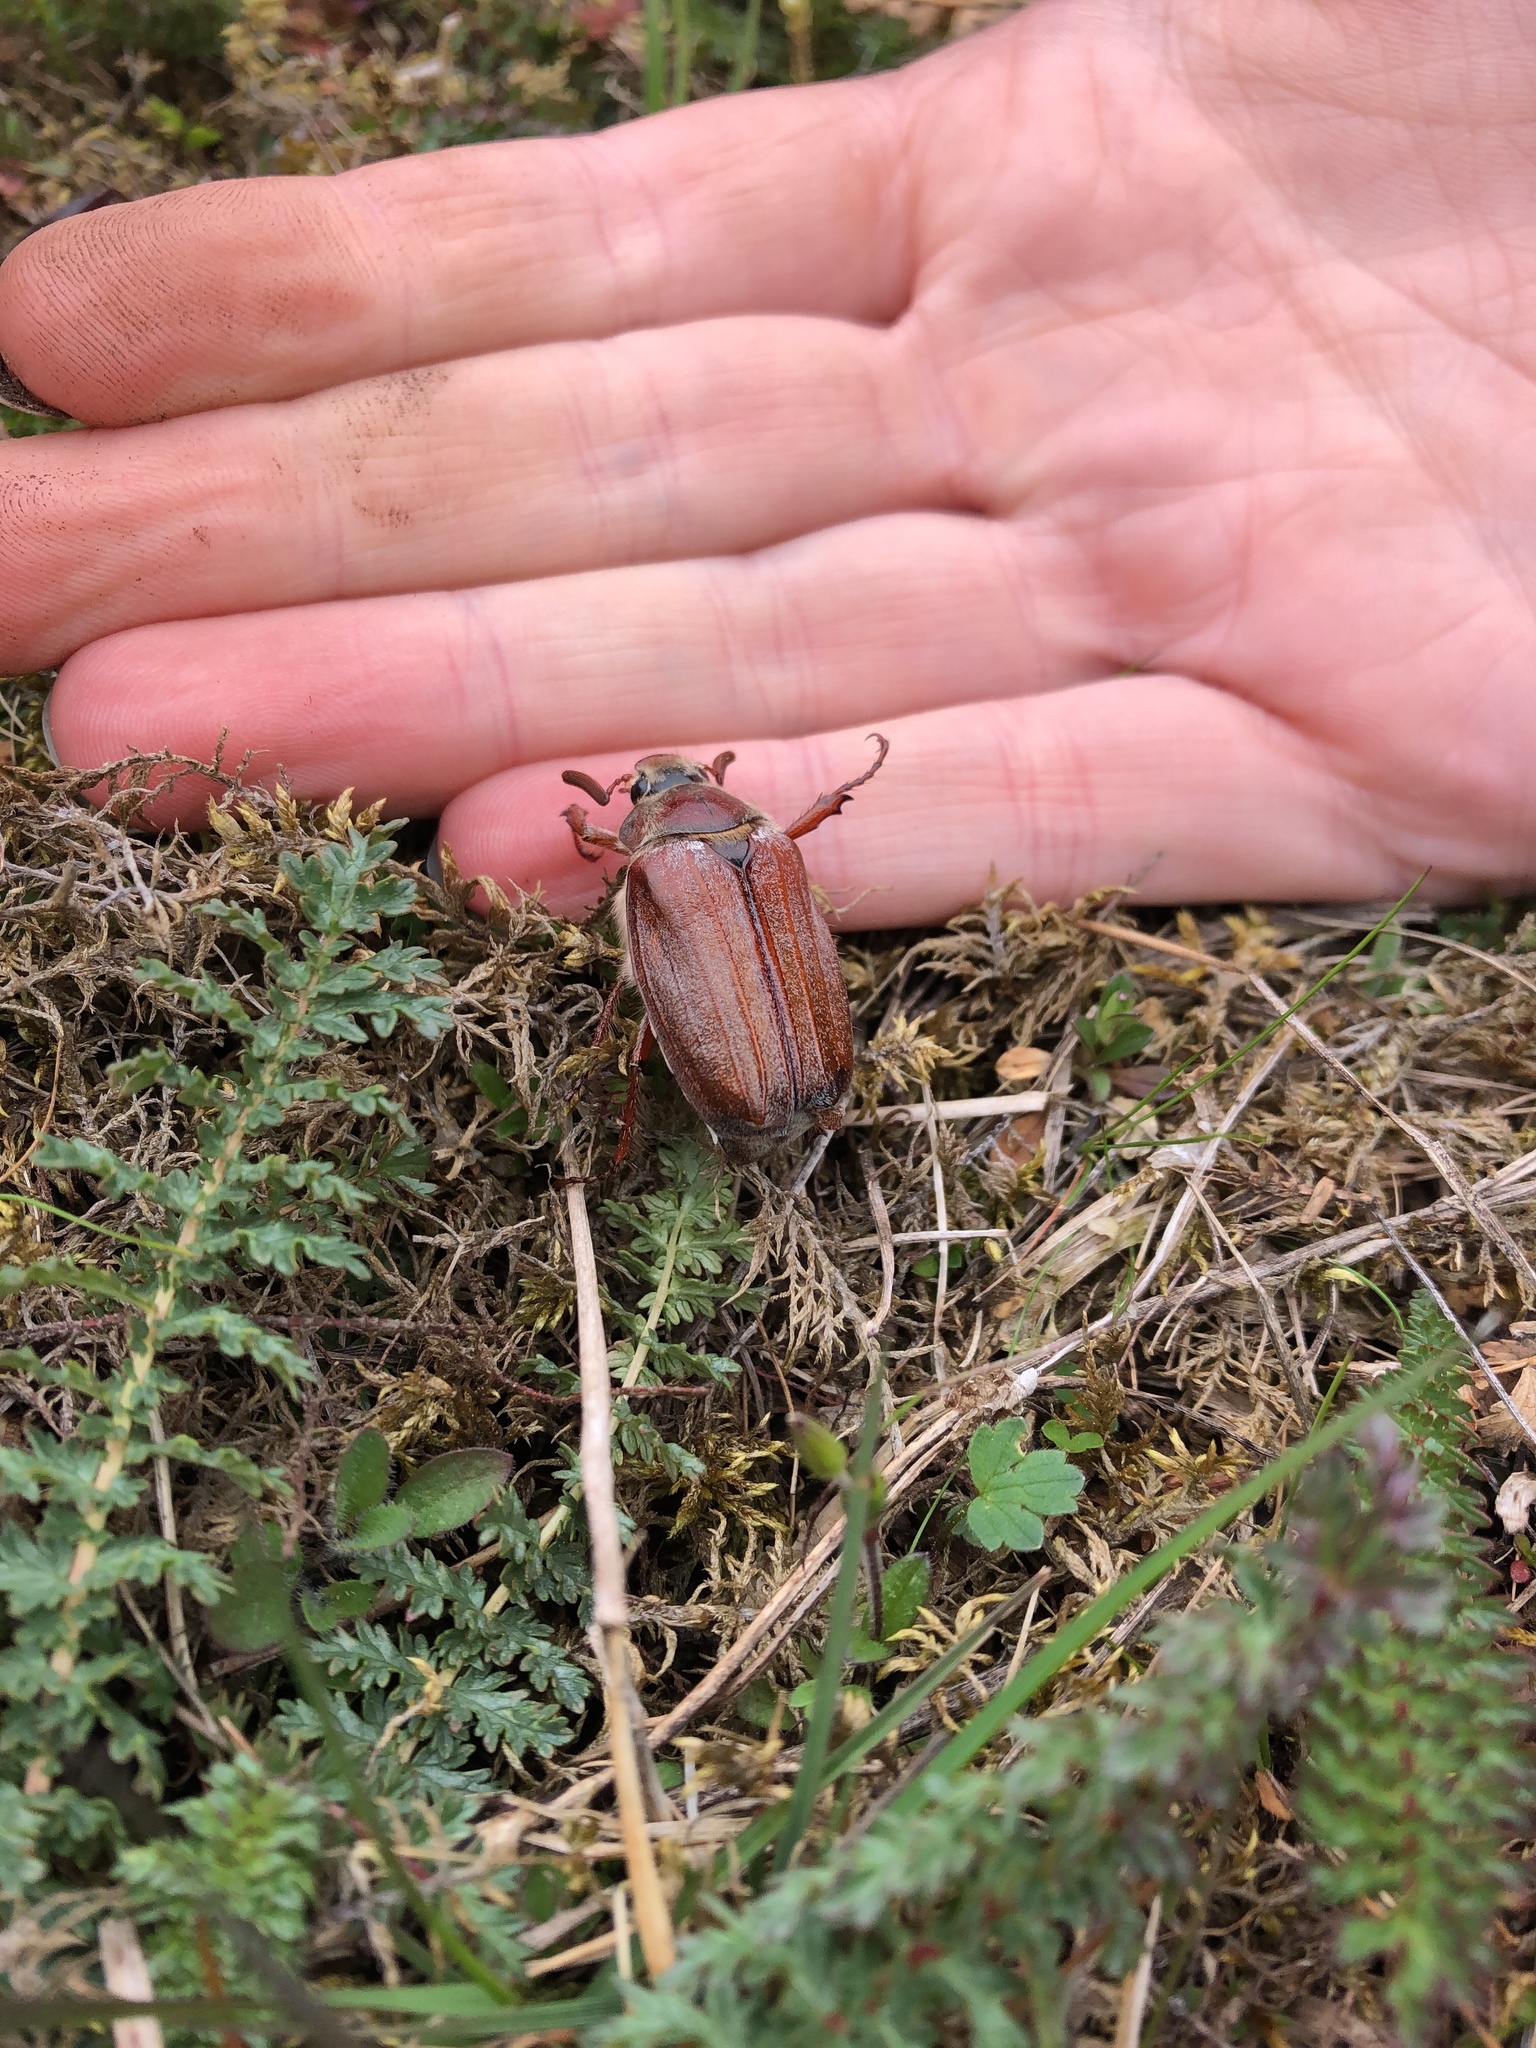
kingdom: Animalia
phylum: Arthropoda
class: Insecta
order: Coleoptera
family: Scarabaeidae
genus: Melolontha
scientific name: Melolontha melolontha
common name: Cockchafer maybeetle
